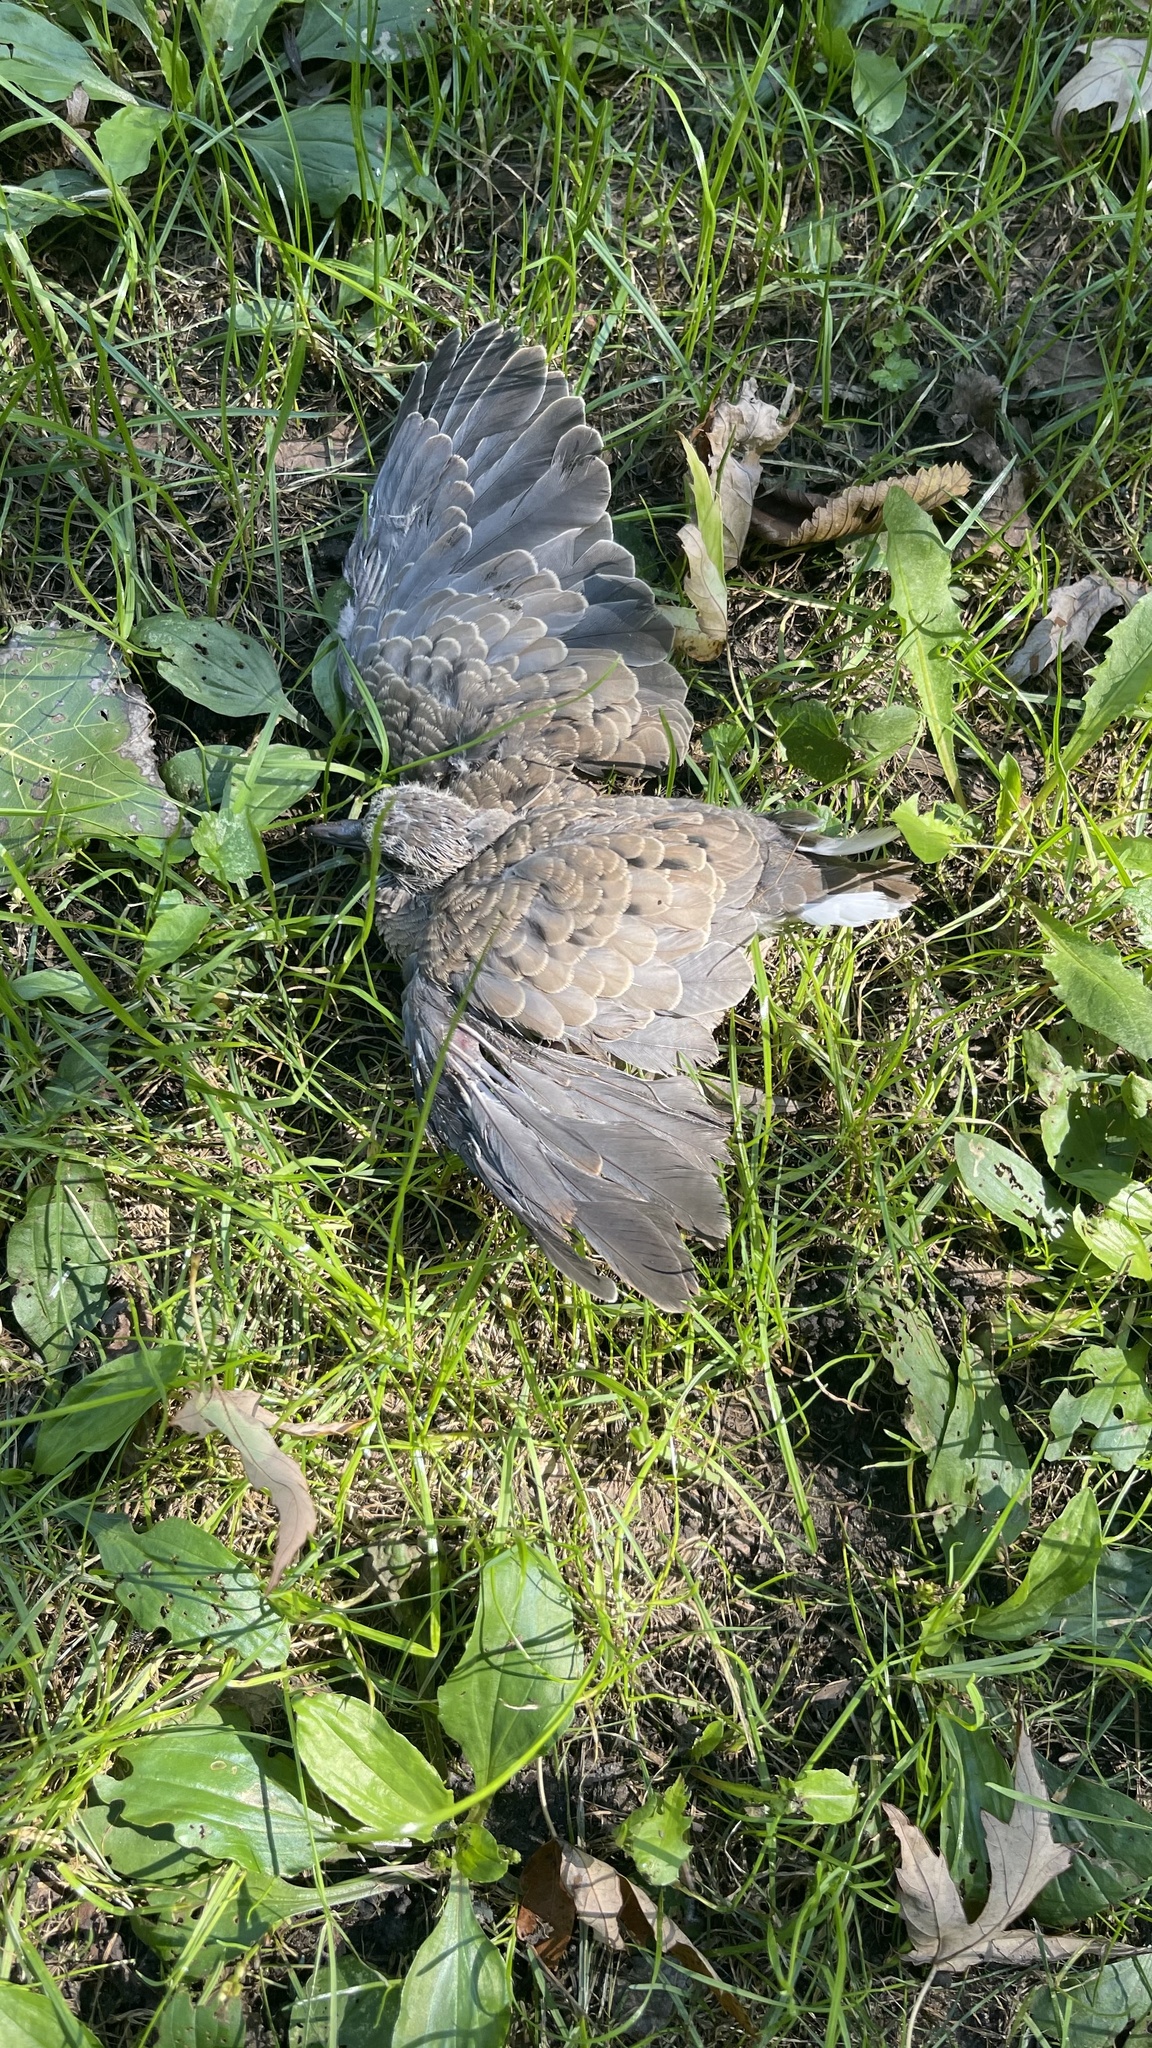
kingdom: Animalia
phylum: Chordata
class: Aves
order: Columbiformes
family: Columbidae
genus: Zenaida
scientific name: Zenaida macroura
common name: Mourning dove
